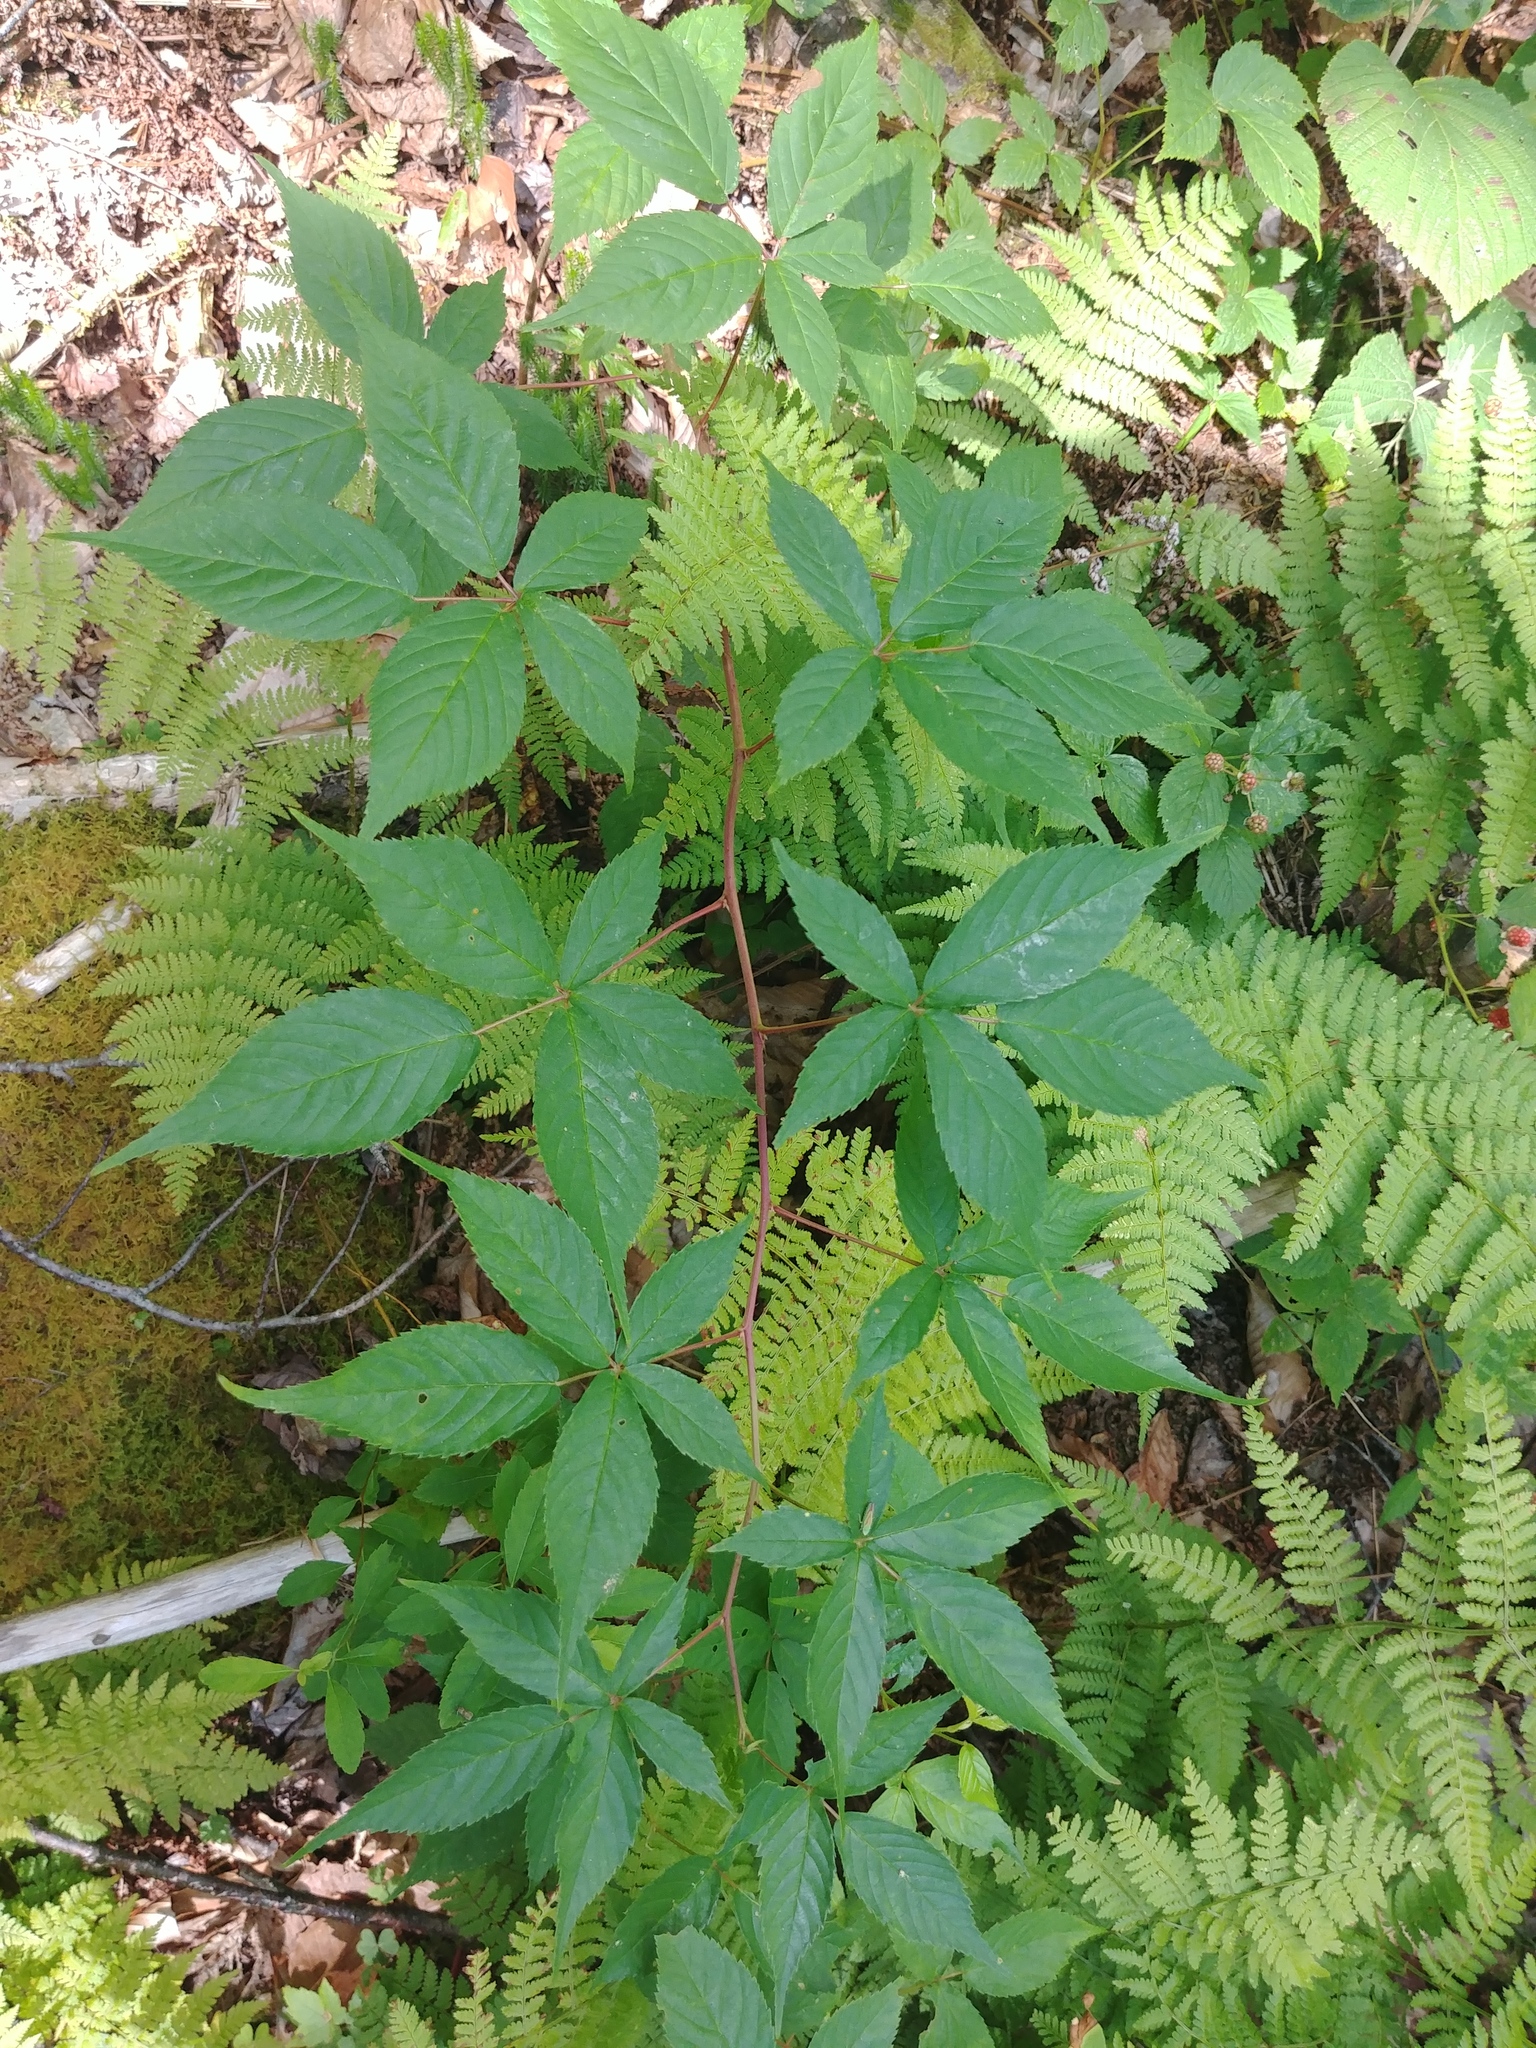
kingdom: Plantae
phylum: Tracheophyta
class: Magnoliopsida
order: Rosales
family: Rosaceae
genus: Rubus
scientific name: Rubus canadensis
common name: Smooth blackberry
